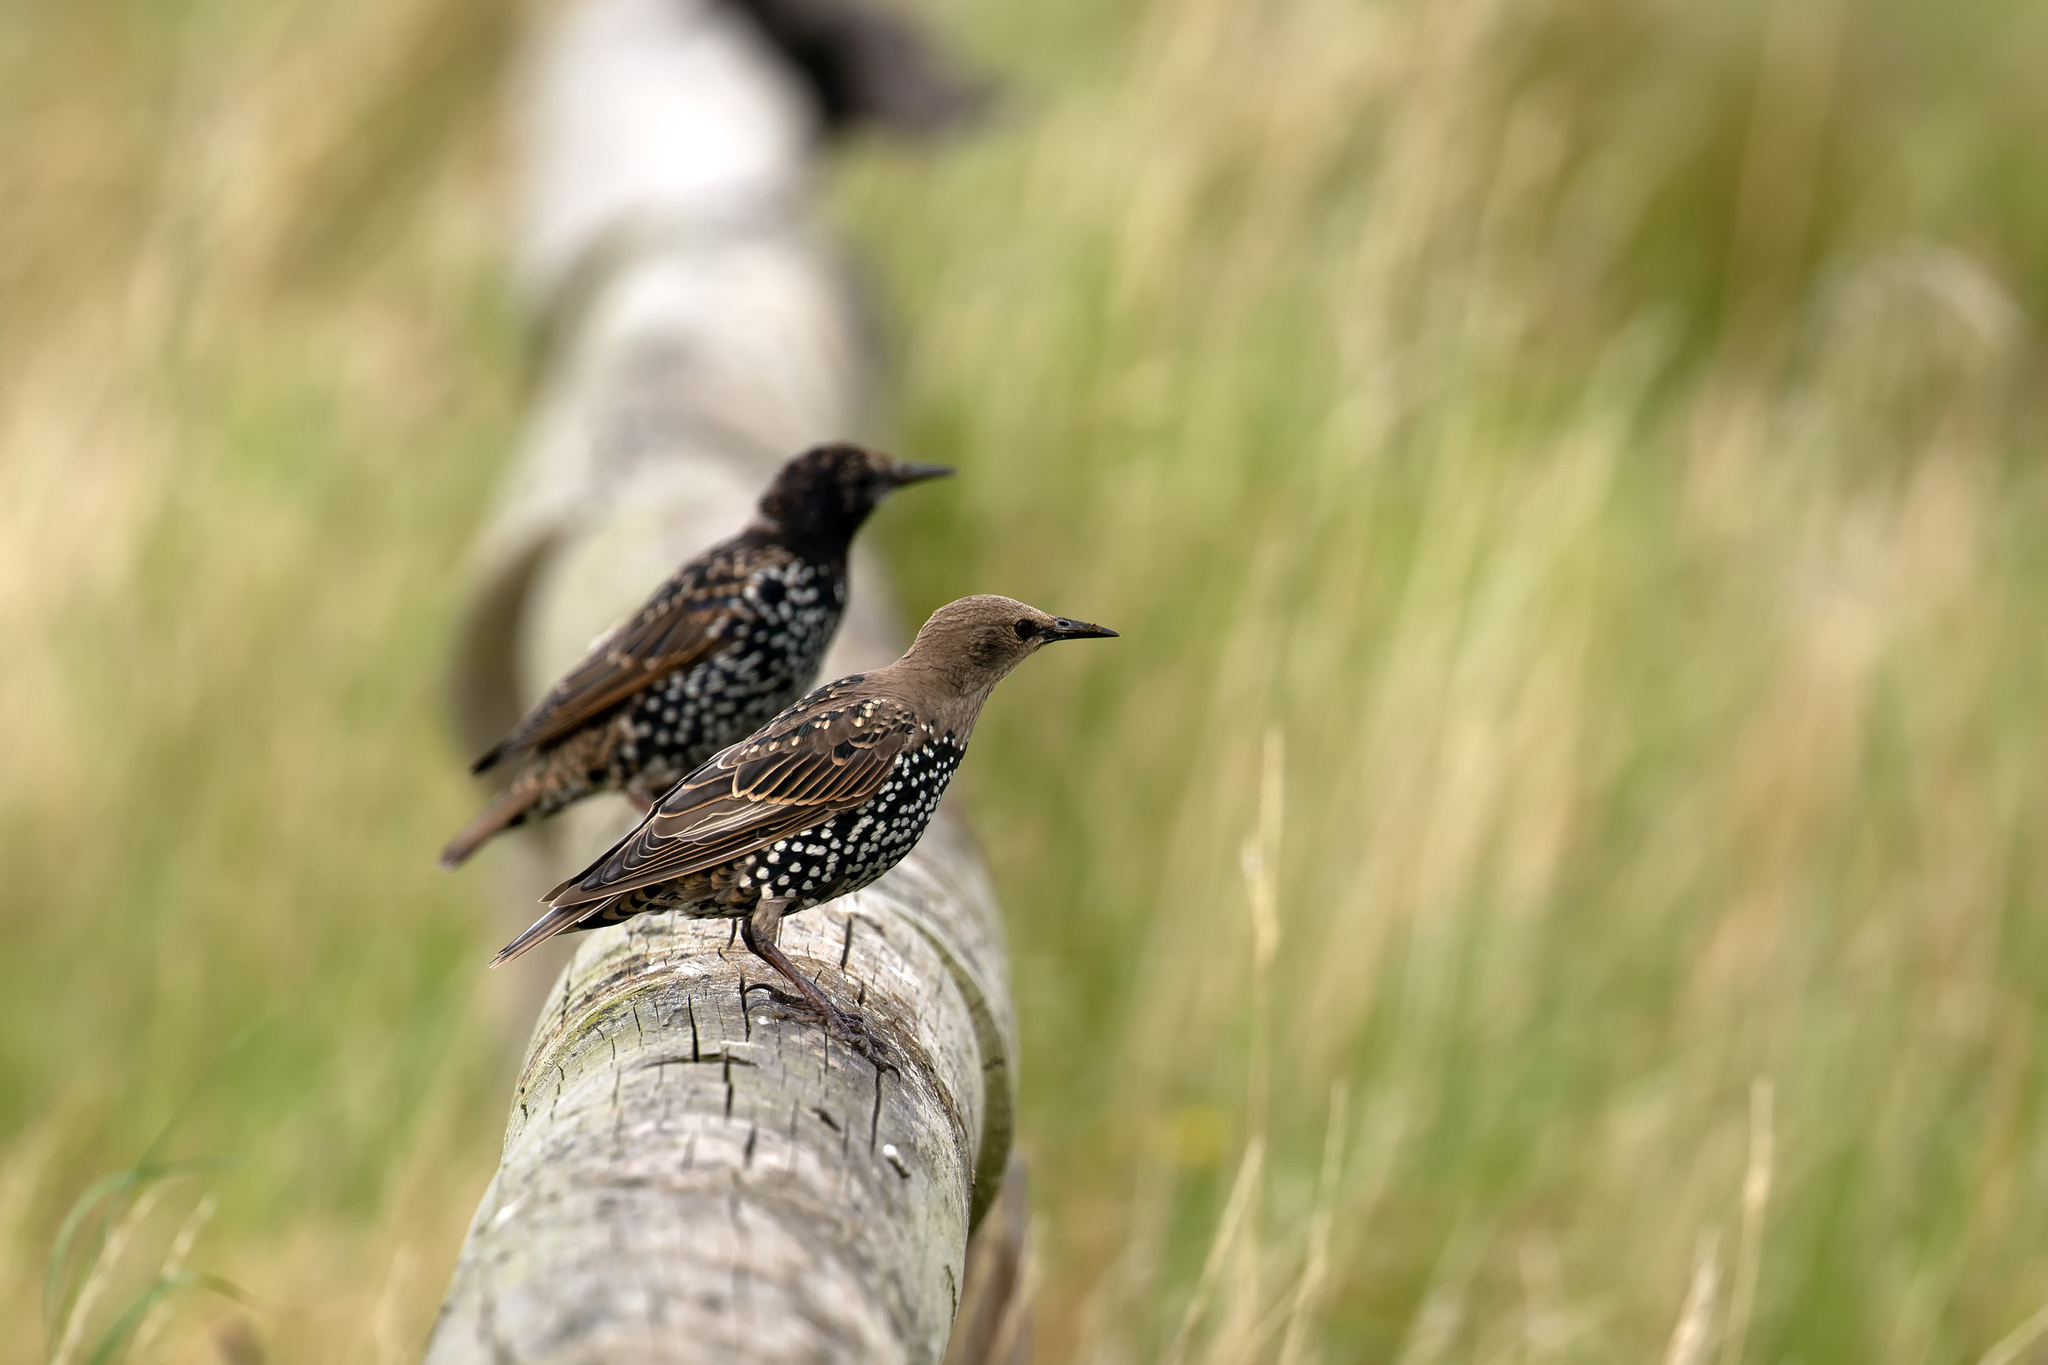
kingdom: Animalia
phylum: Chordata
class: Aves
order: Passeriformes
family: Sturnidae
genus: Sturnus
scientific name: Sturnus vulgaris
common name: Common starling
